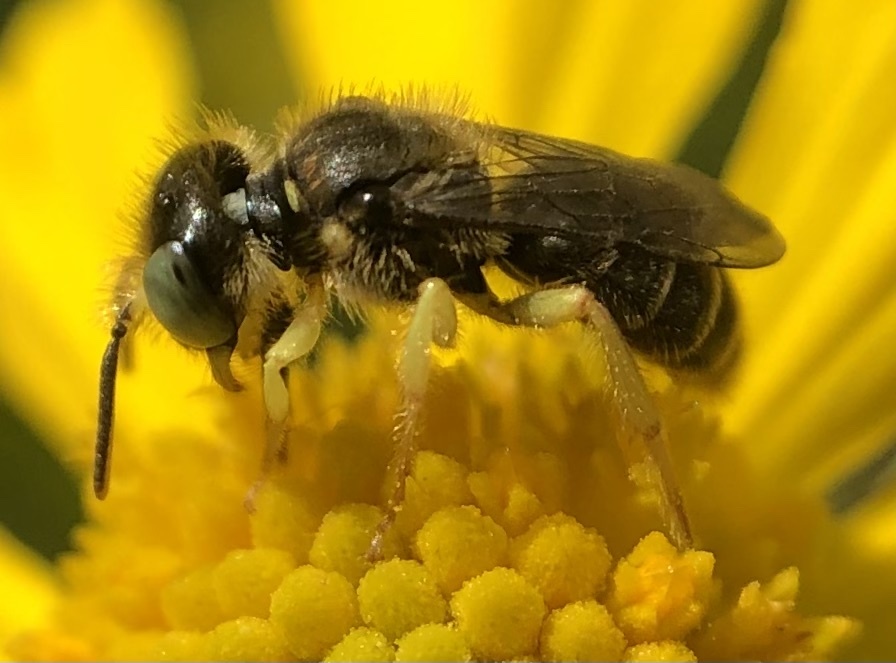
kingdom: Animalia
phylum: Arthropoda
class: Insecta
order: Hymenoptera
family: Andrenidae
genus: Calliopsis
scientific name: Calliopsis andreniformis
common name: Eastern calliopsis bee
